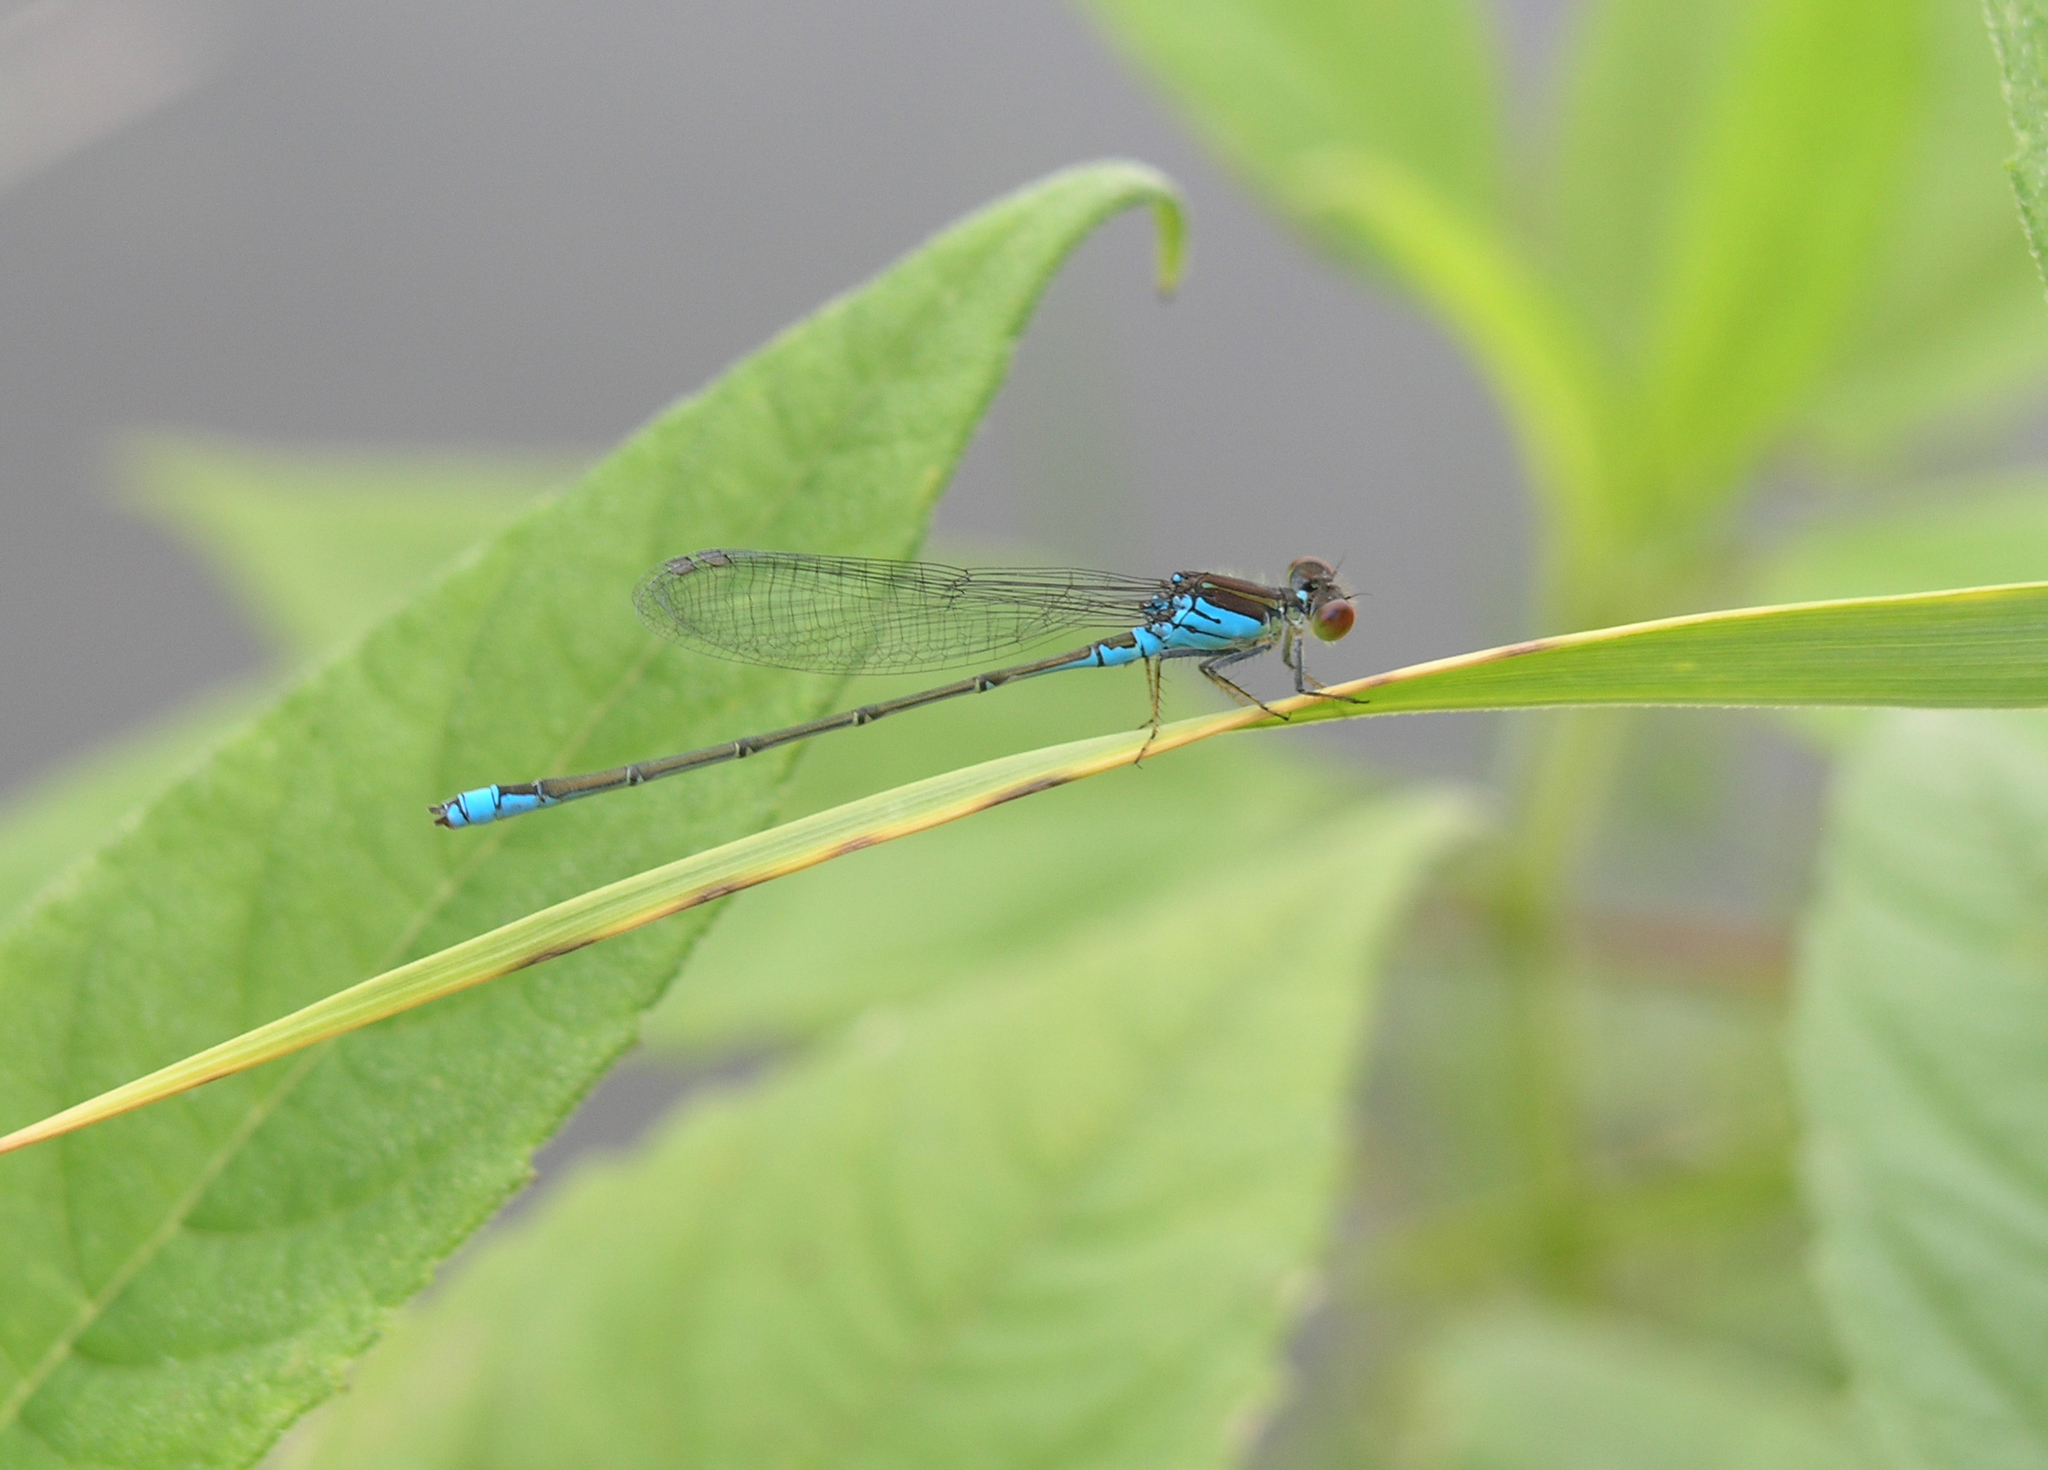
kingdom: Animalia
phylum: Arthropoda
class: Insecta
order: Odonata
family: Coenagrionidae
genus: Erythromma
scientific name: Erythromma viridulum
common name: Small red-eyed damselfly
